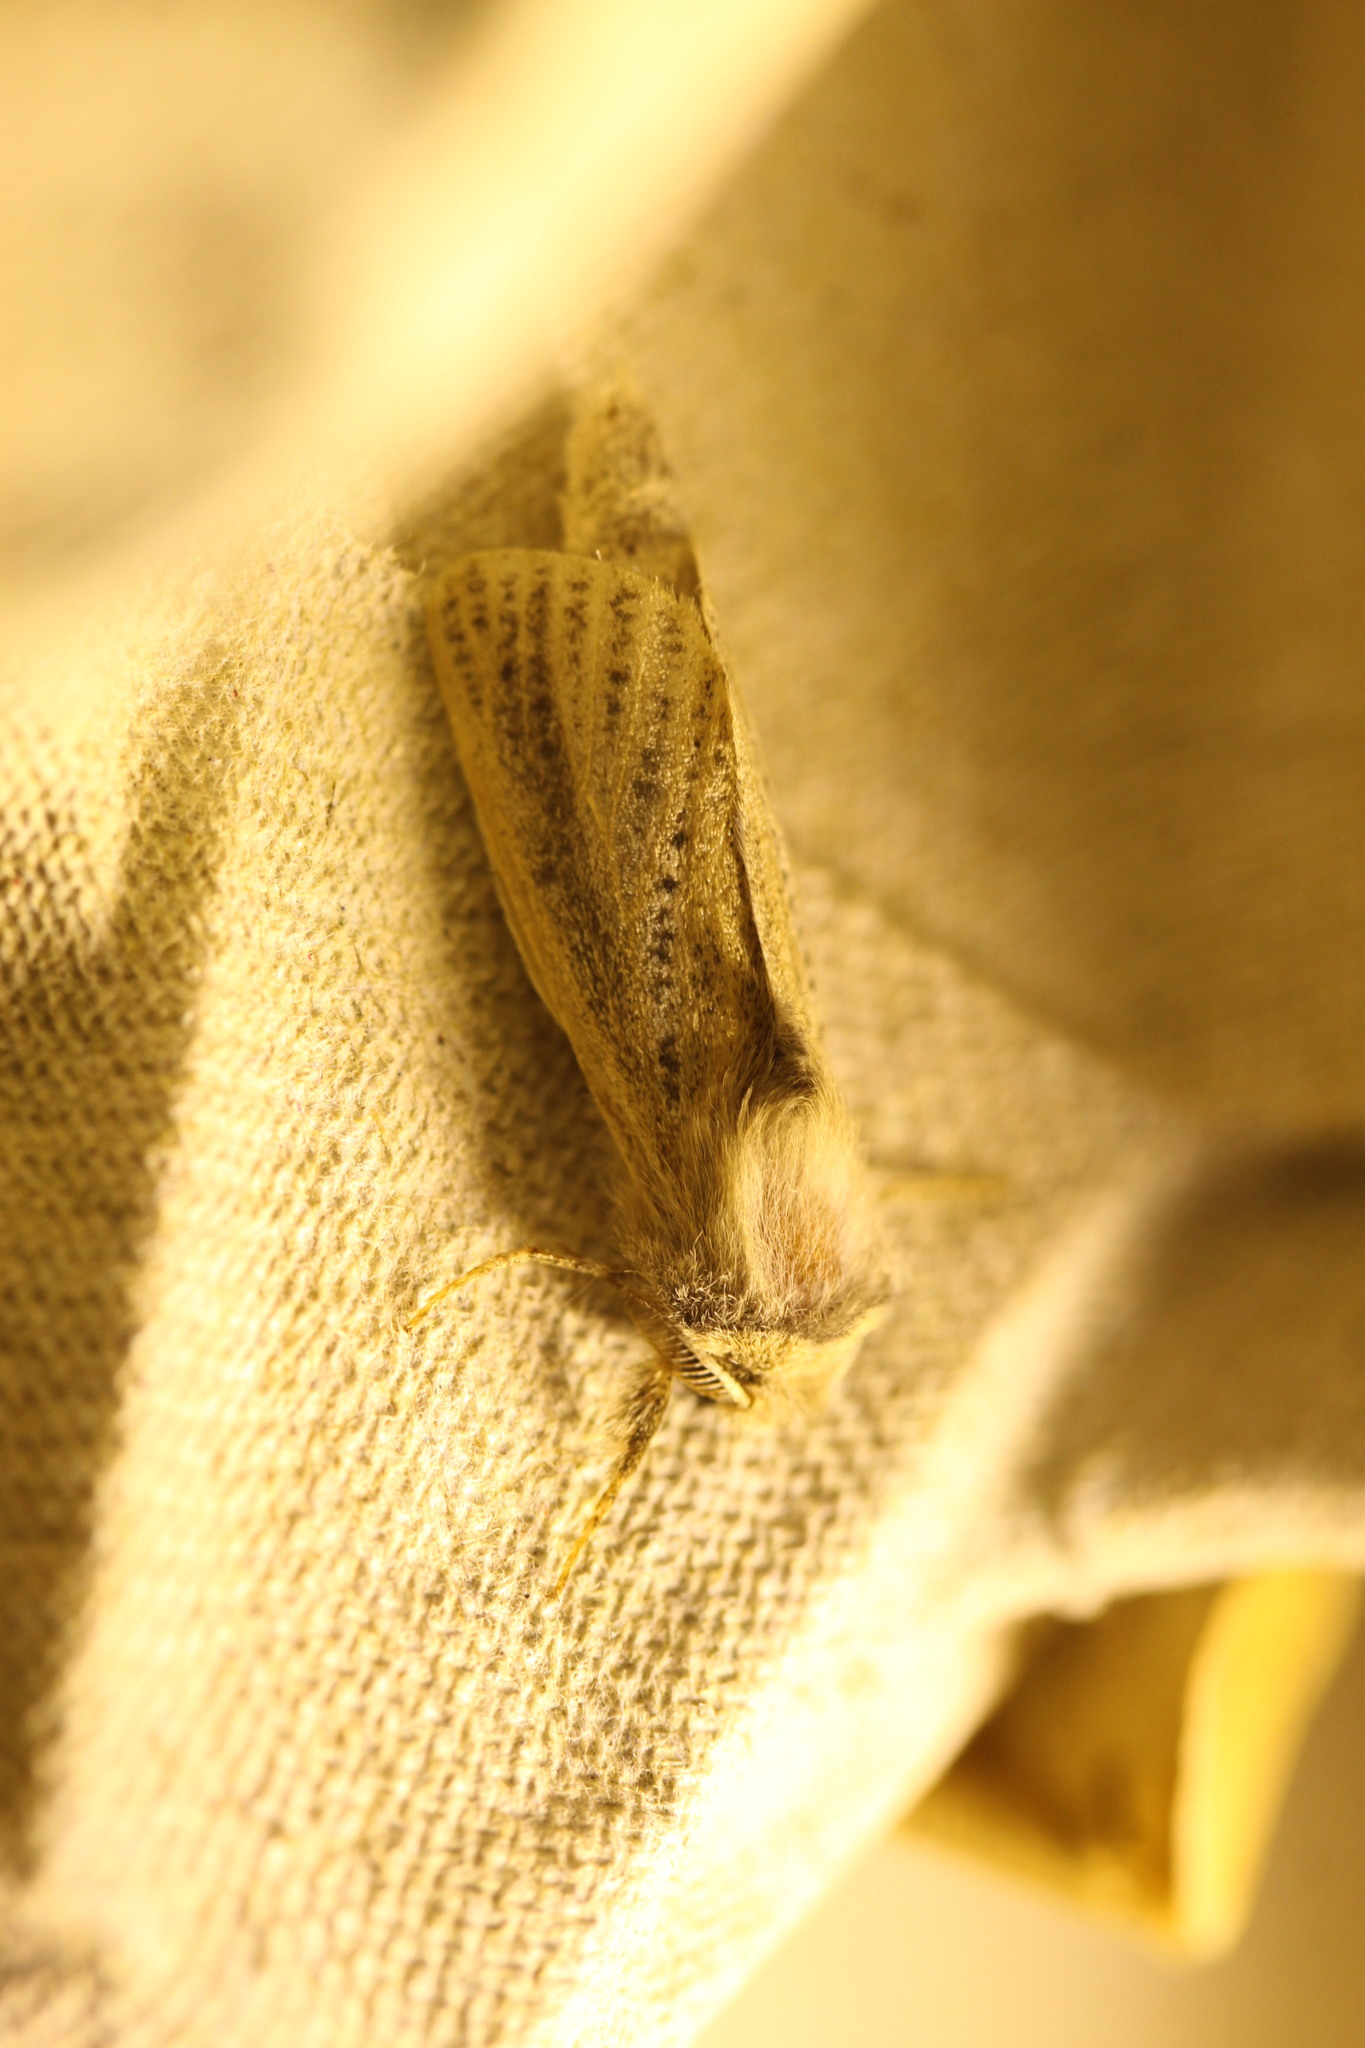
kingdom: Animalia
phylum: Arthropoda
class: Insecta
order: Lepidoptera
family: Cossidae
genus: Phragmataecia
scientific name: Phragmataecia castaneae
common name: Reed leopard
